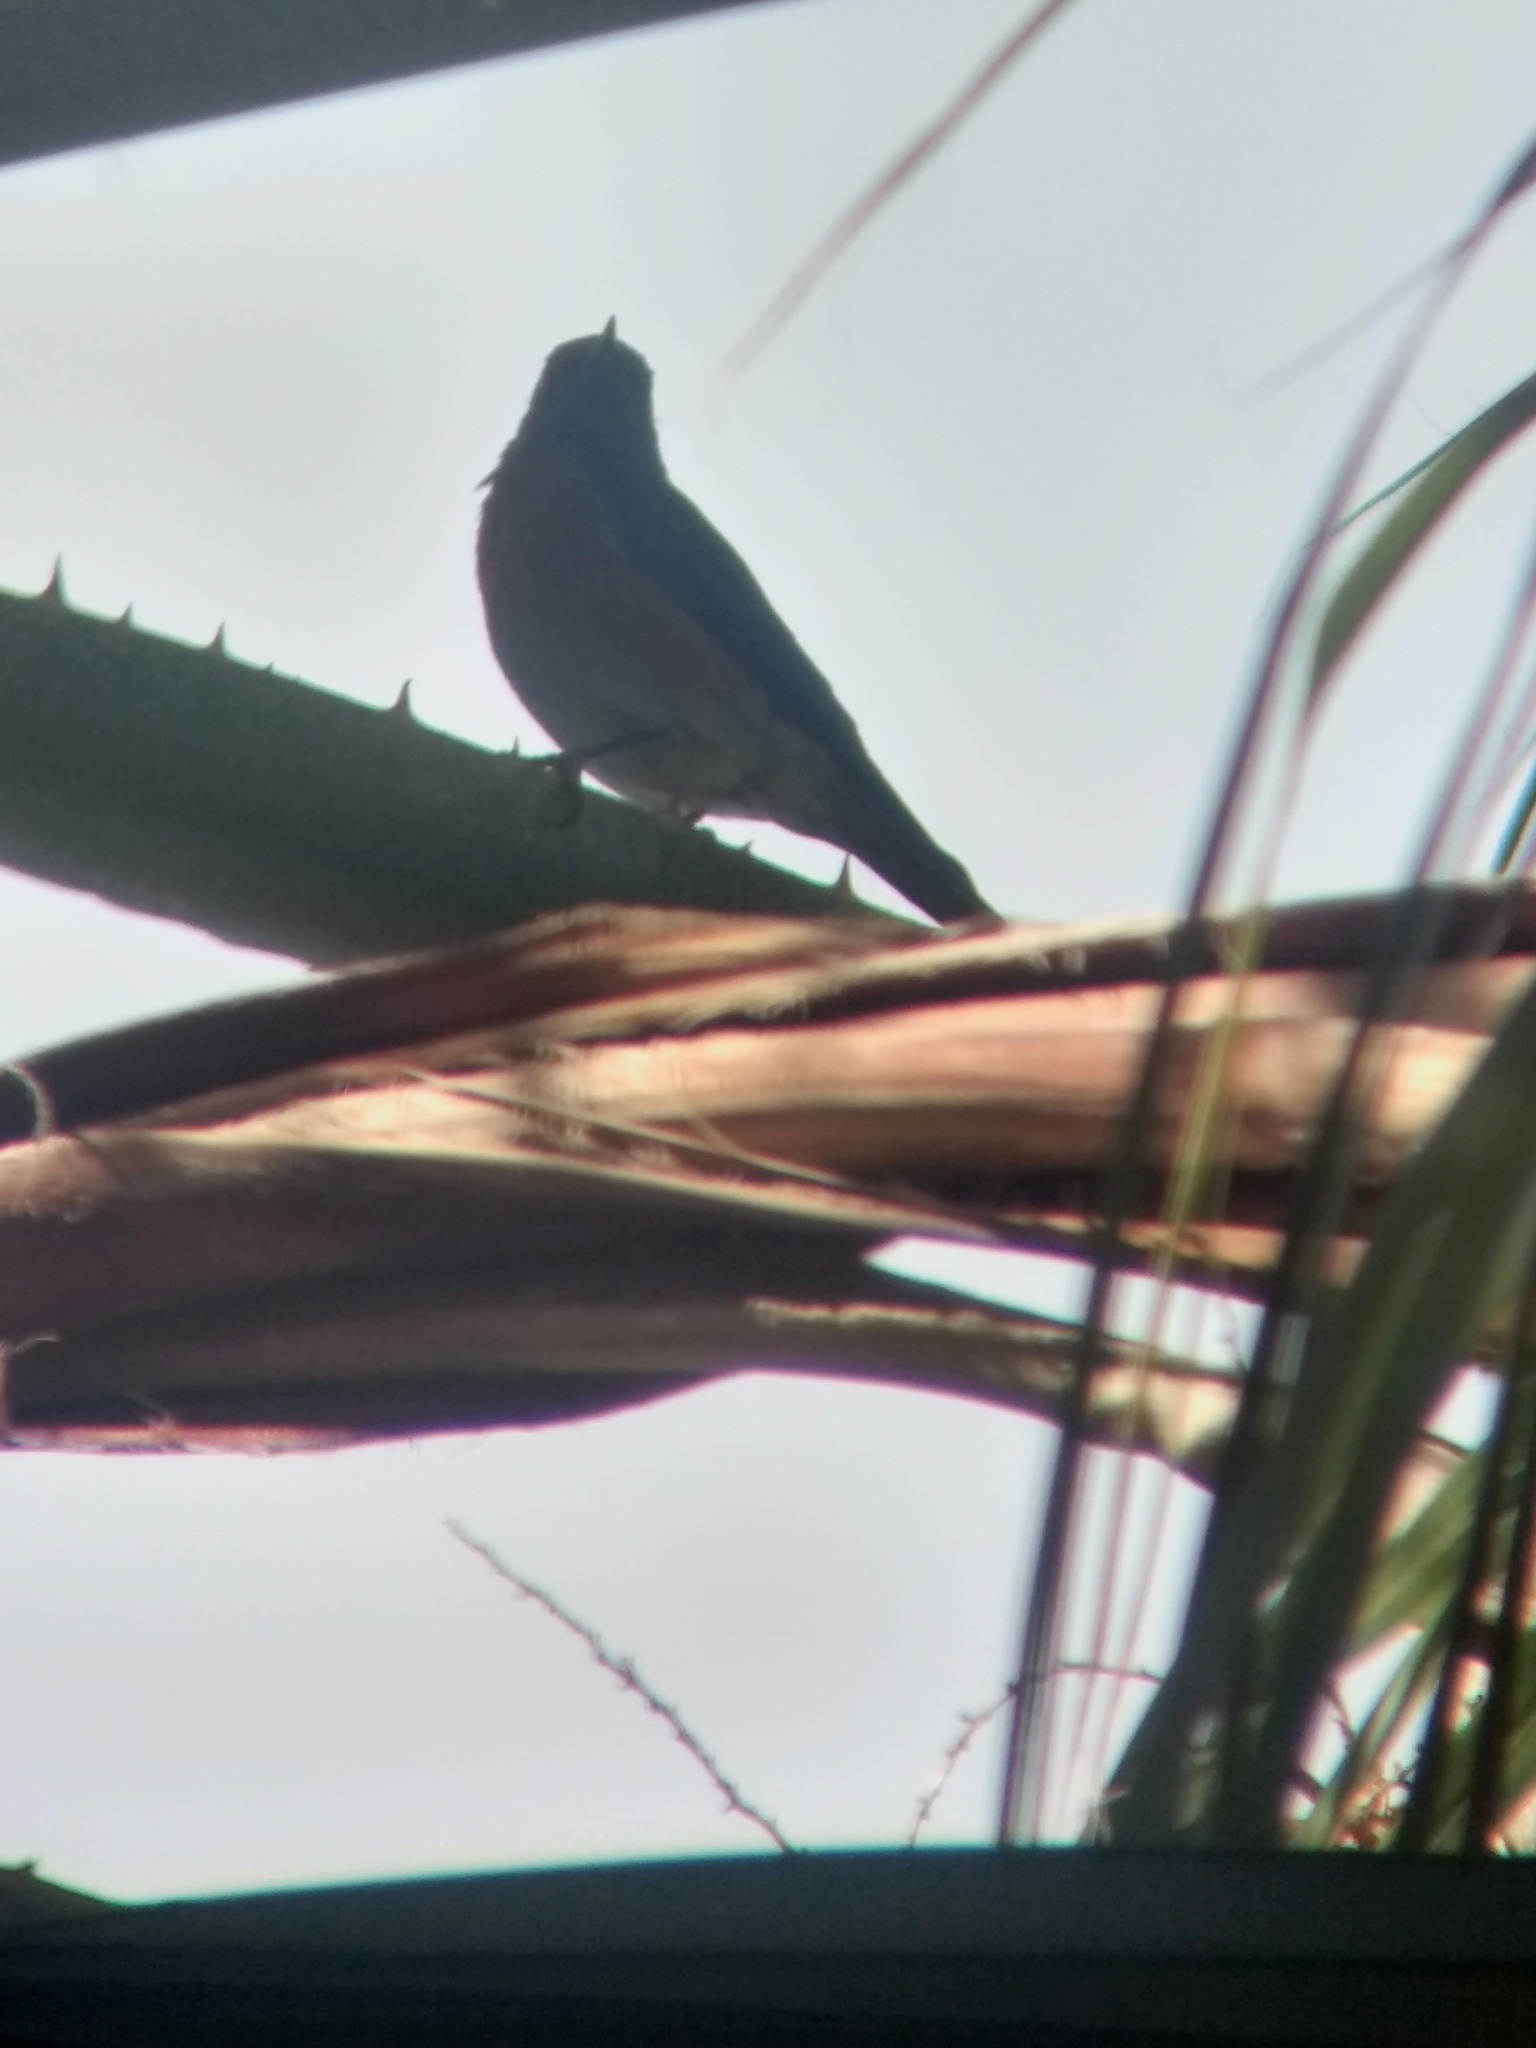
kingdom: Animalia
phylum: Chordata
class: Aves
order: Passeriformes
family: Turdidae
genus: Sialia
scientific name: Sialia mexicana
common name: Western bluebird
